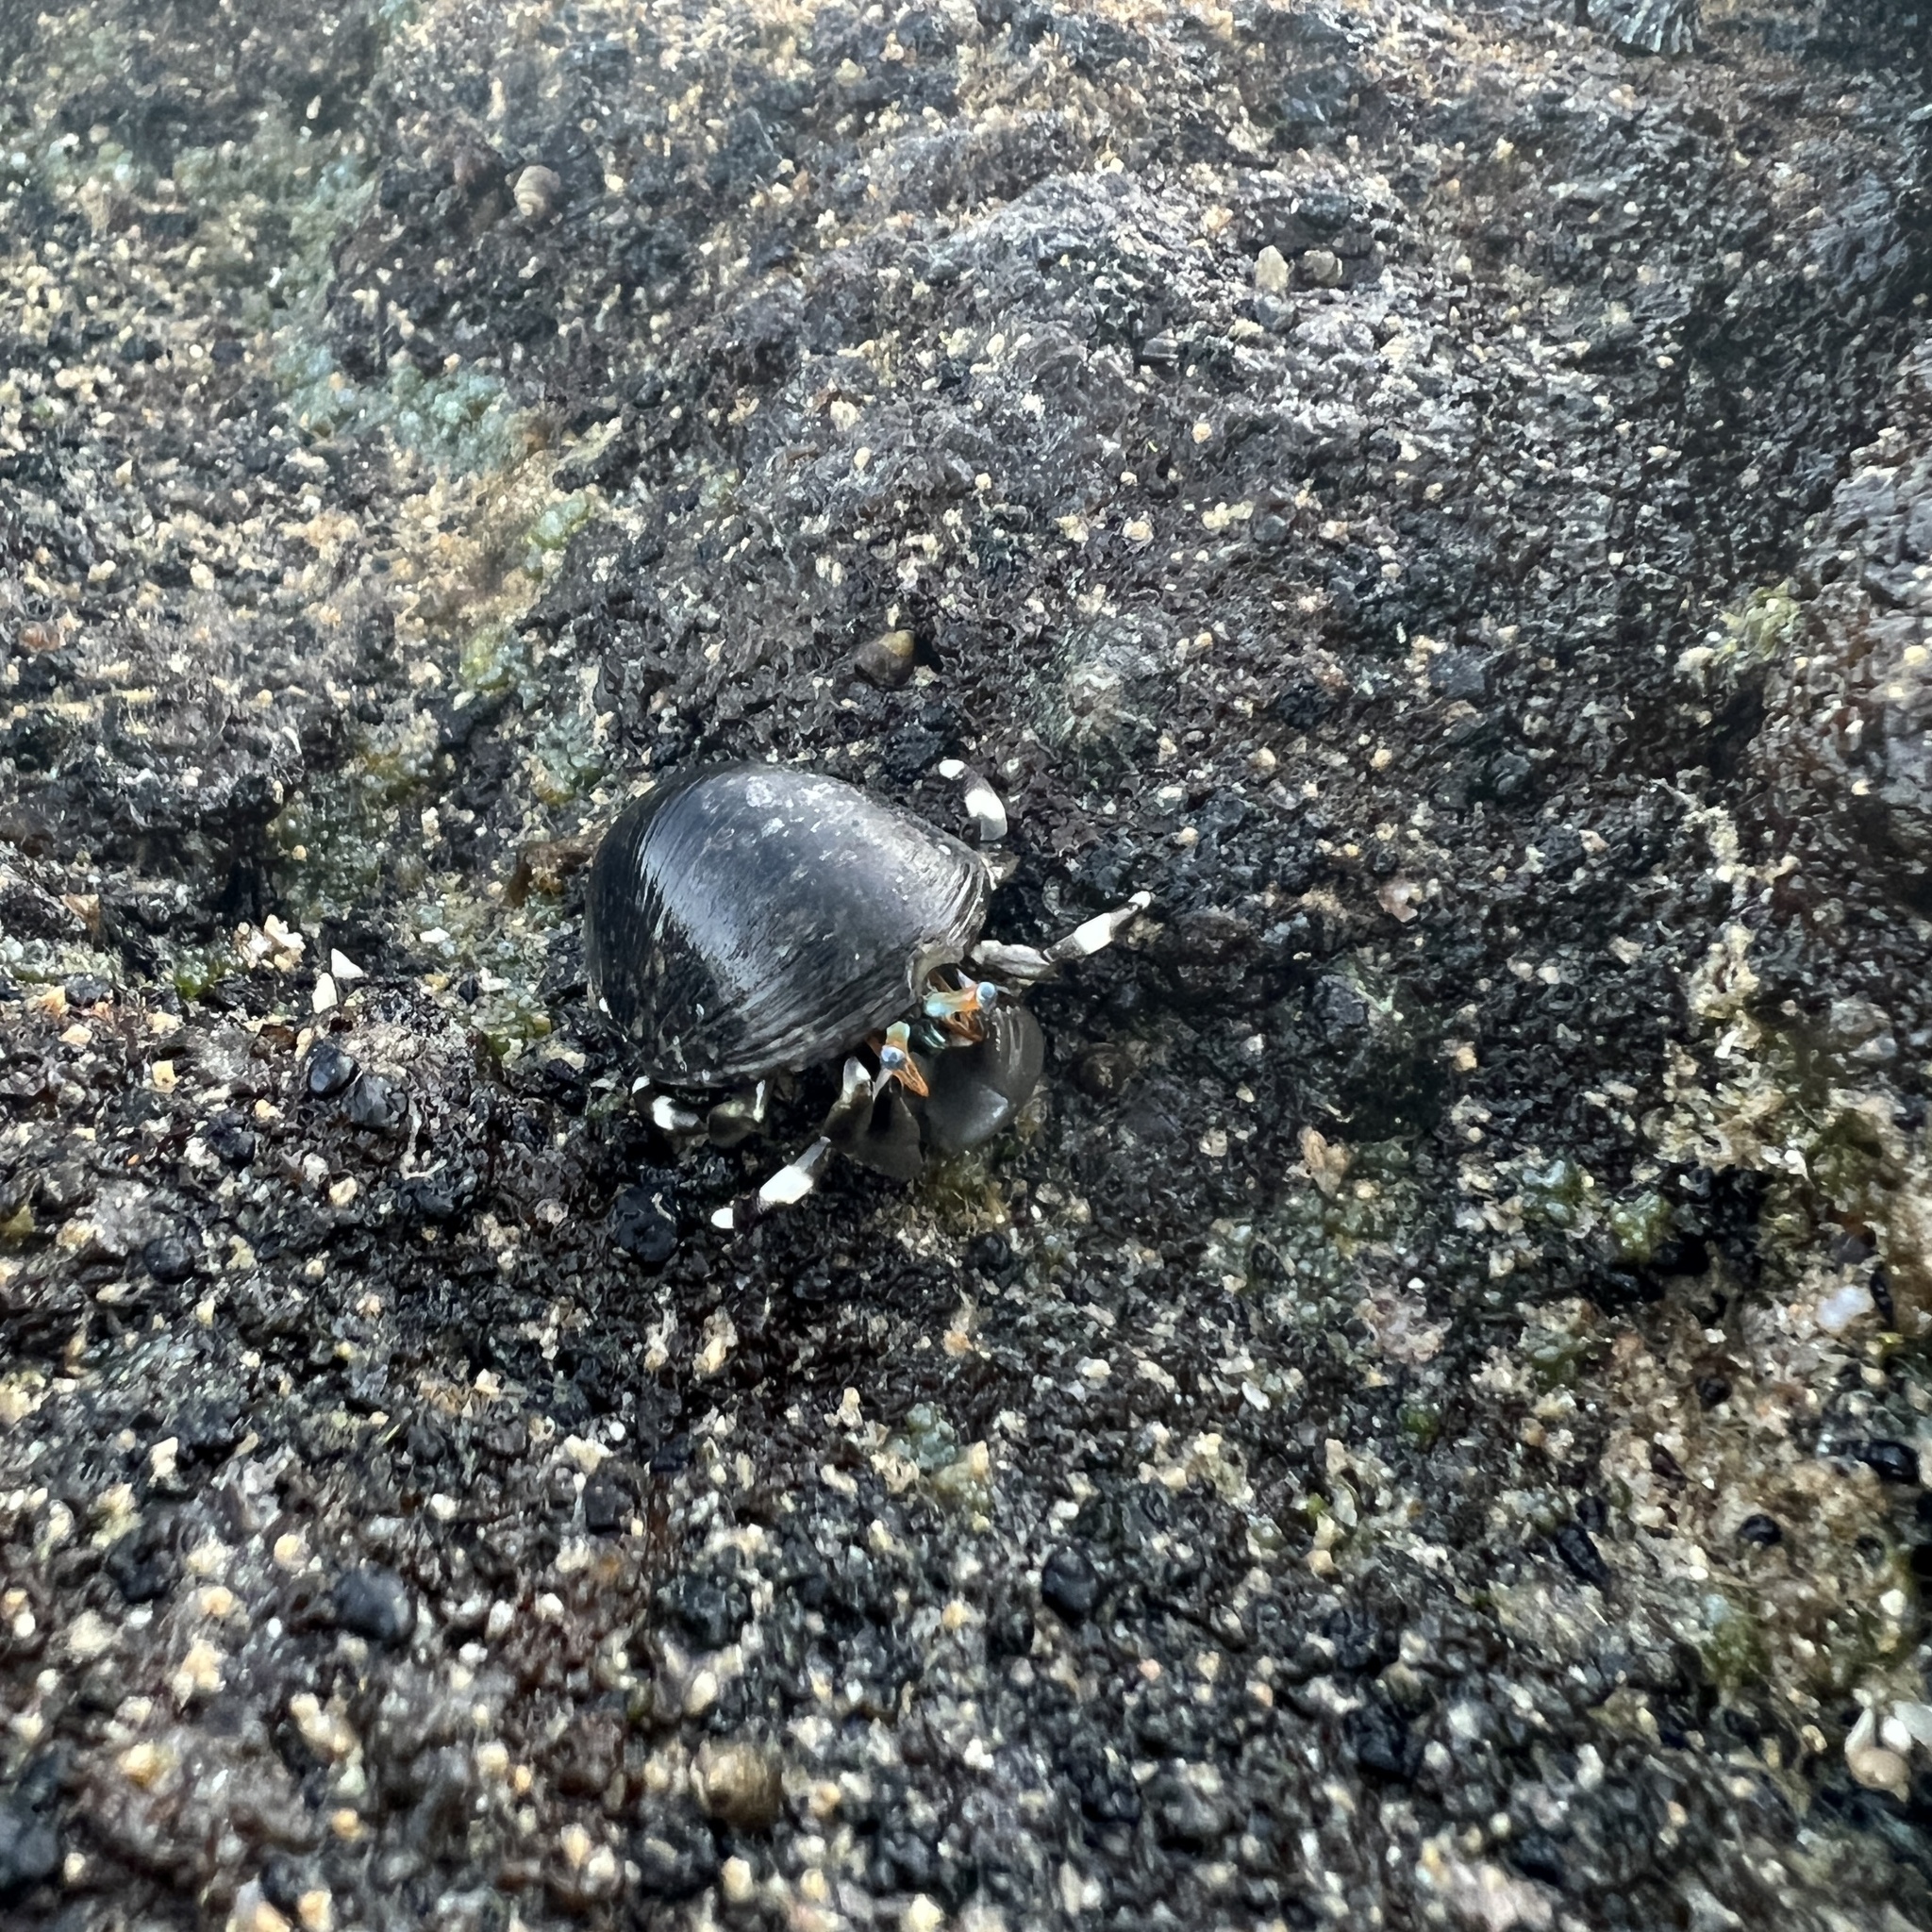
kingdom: Animalia
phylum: Arthropoda
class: Malacostraca
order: Decapoda
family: Diogenidae
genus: Calcinus
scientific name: Calcinus seurati
